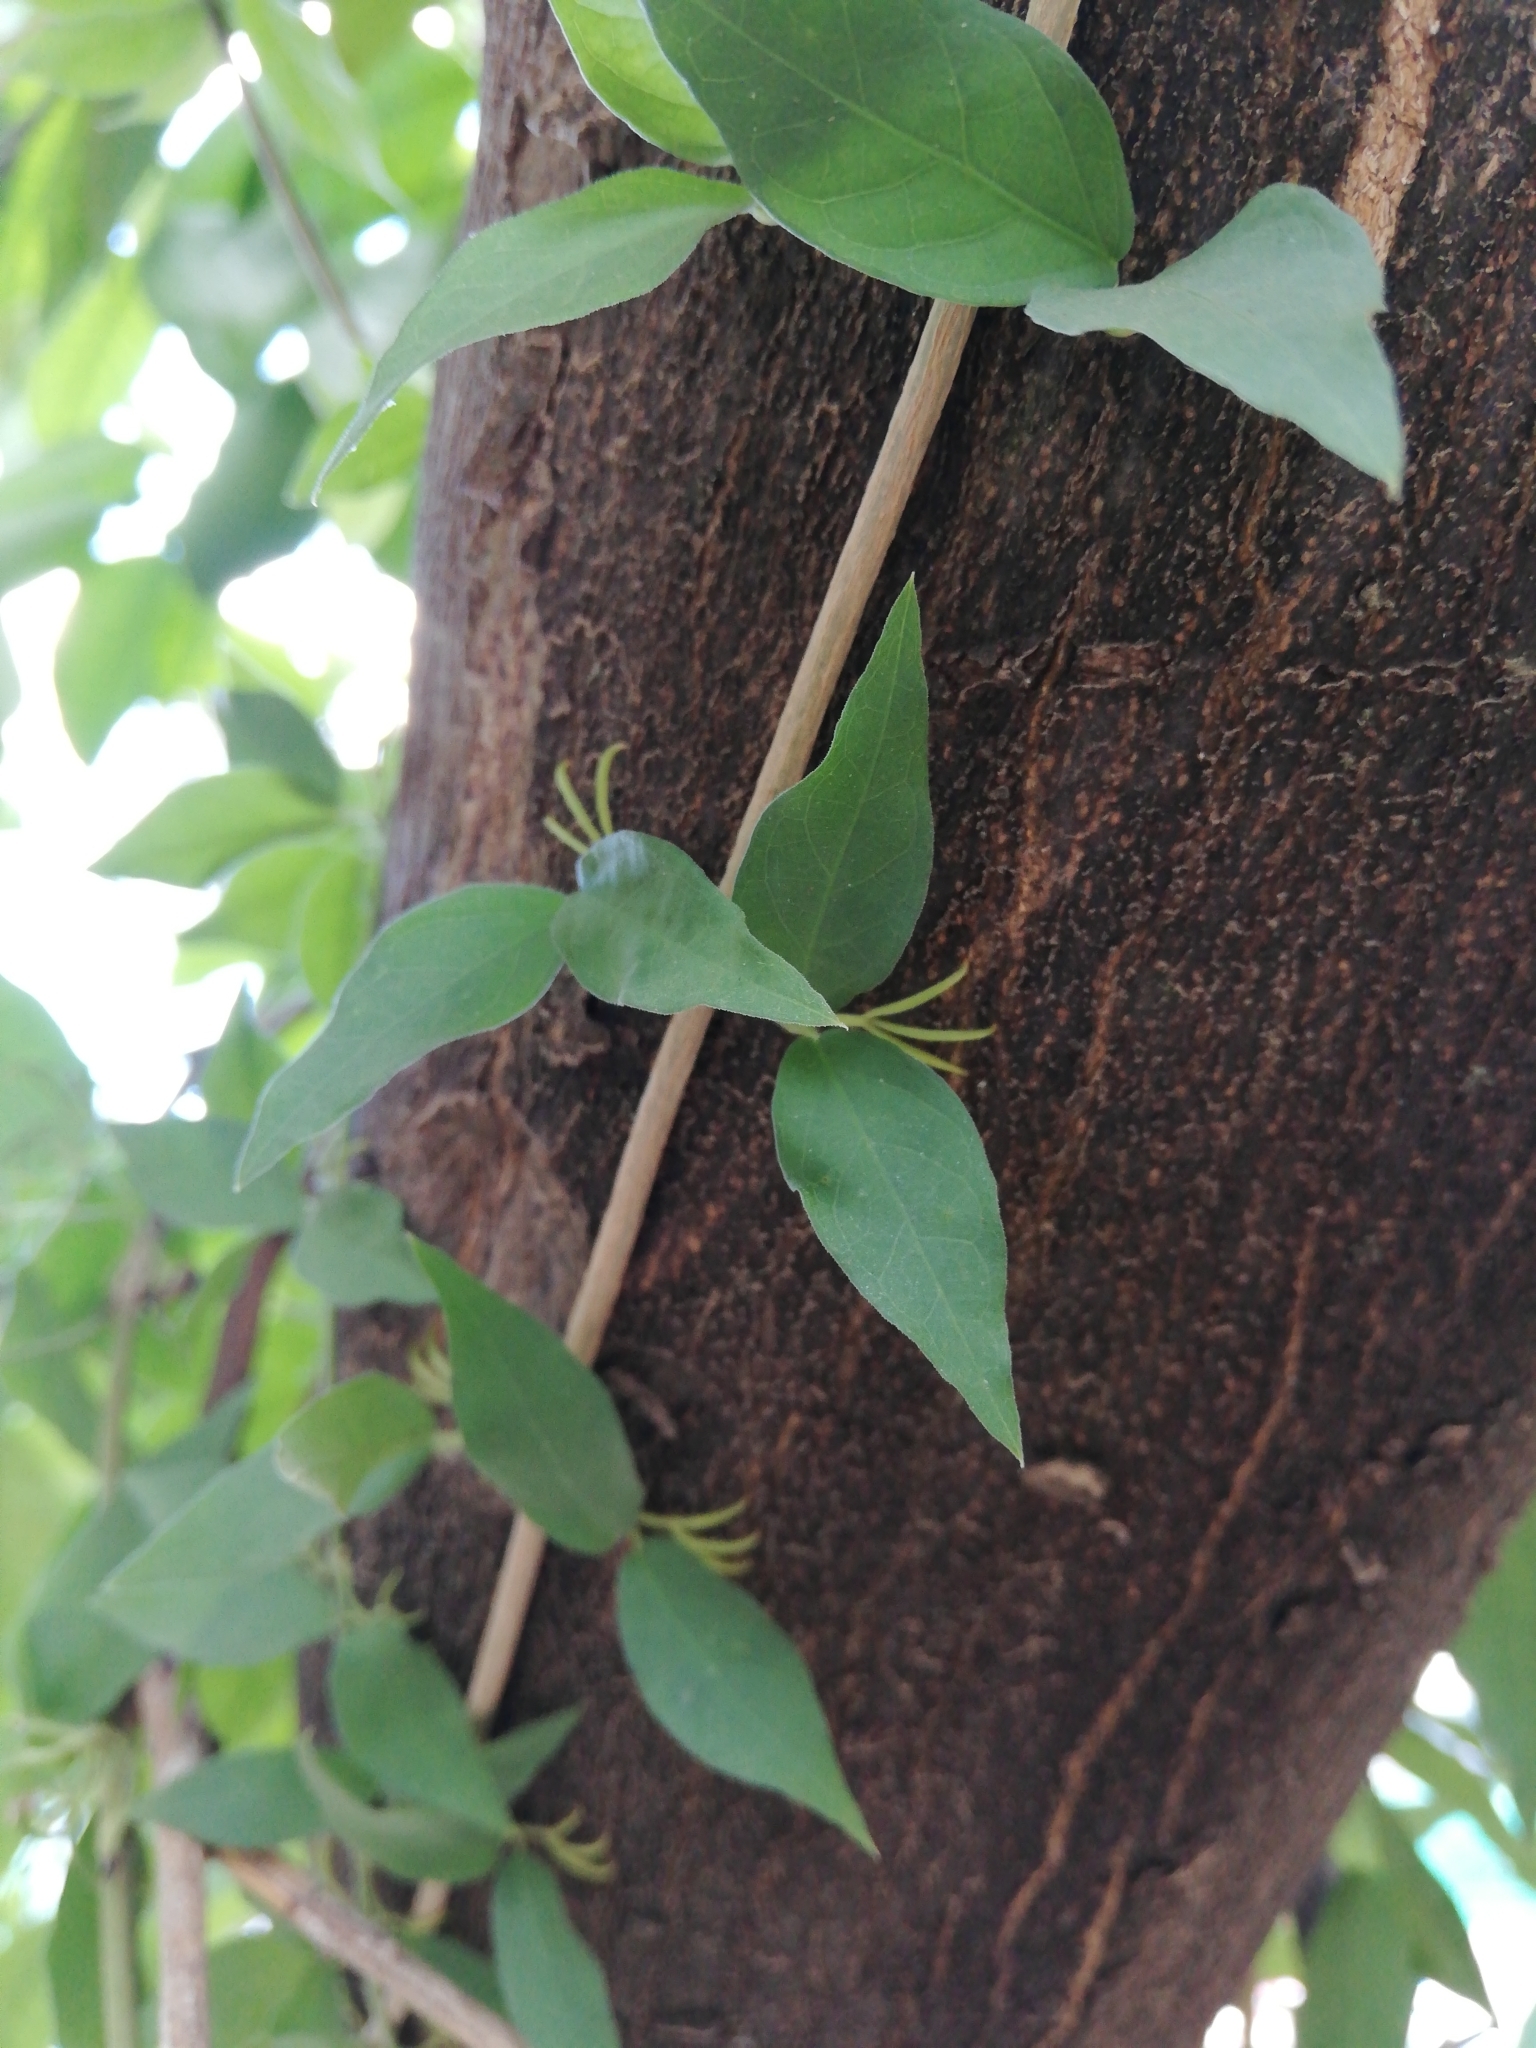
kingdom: Plantae
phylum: Tracheophyta
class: Magnoliopsida
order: Lamiales
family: Bignoniaceae
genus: Dolichandra
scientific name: Dolichandra unguis-cati
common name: Catclaw vine
